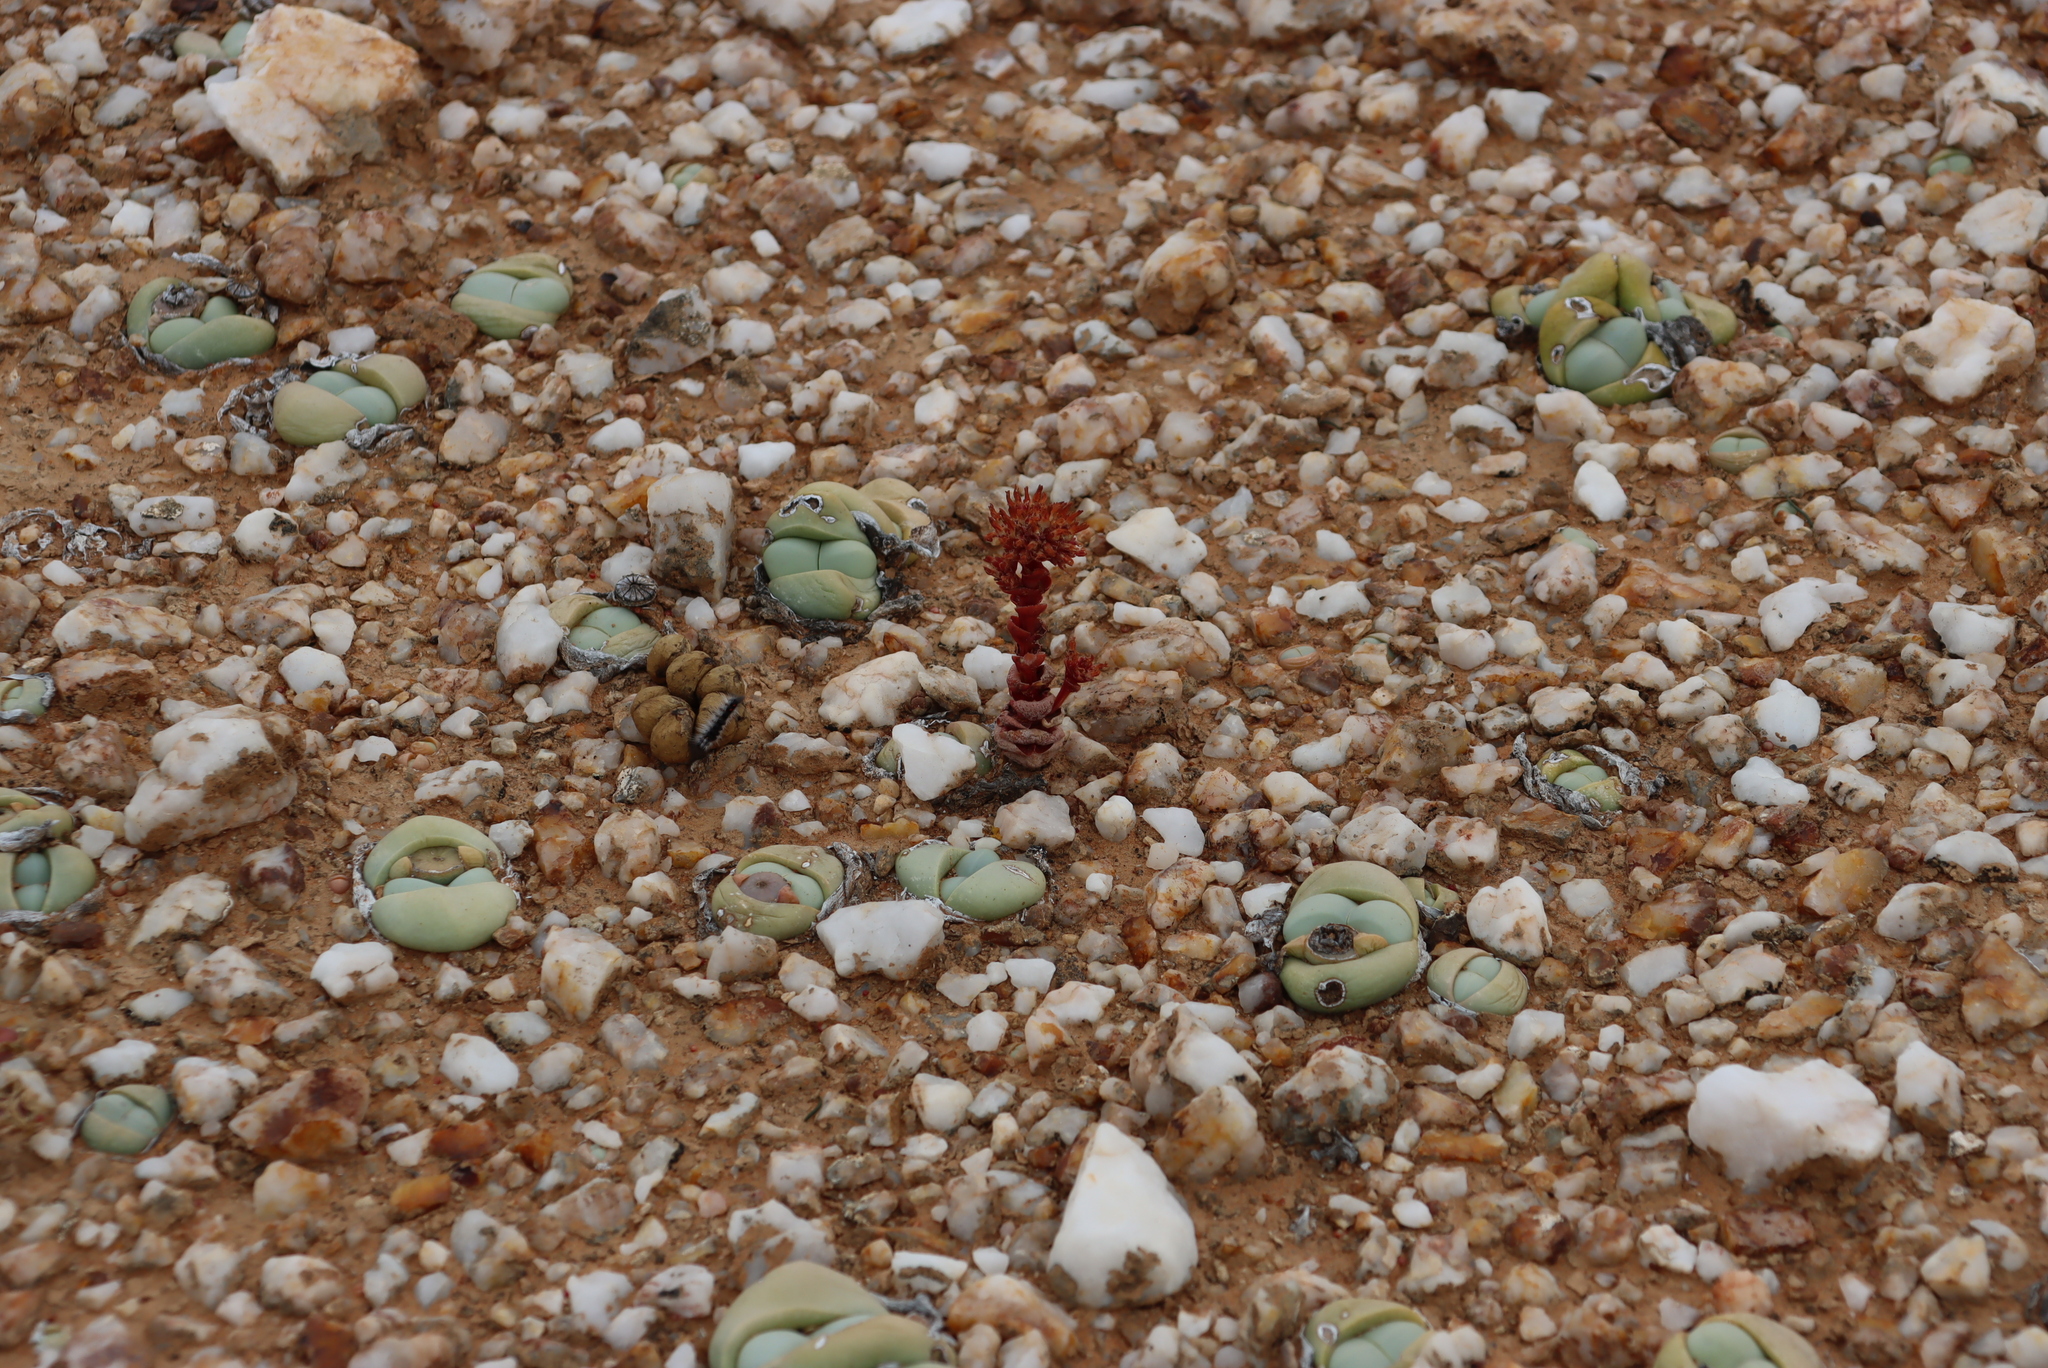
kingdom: Plantae
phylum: Tracheophyta
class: Magnoliopsida
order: Saxifragales
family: Crassulaceae
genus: Crassula
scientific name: Crassula columnaris
